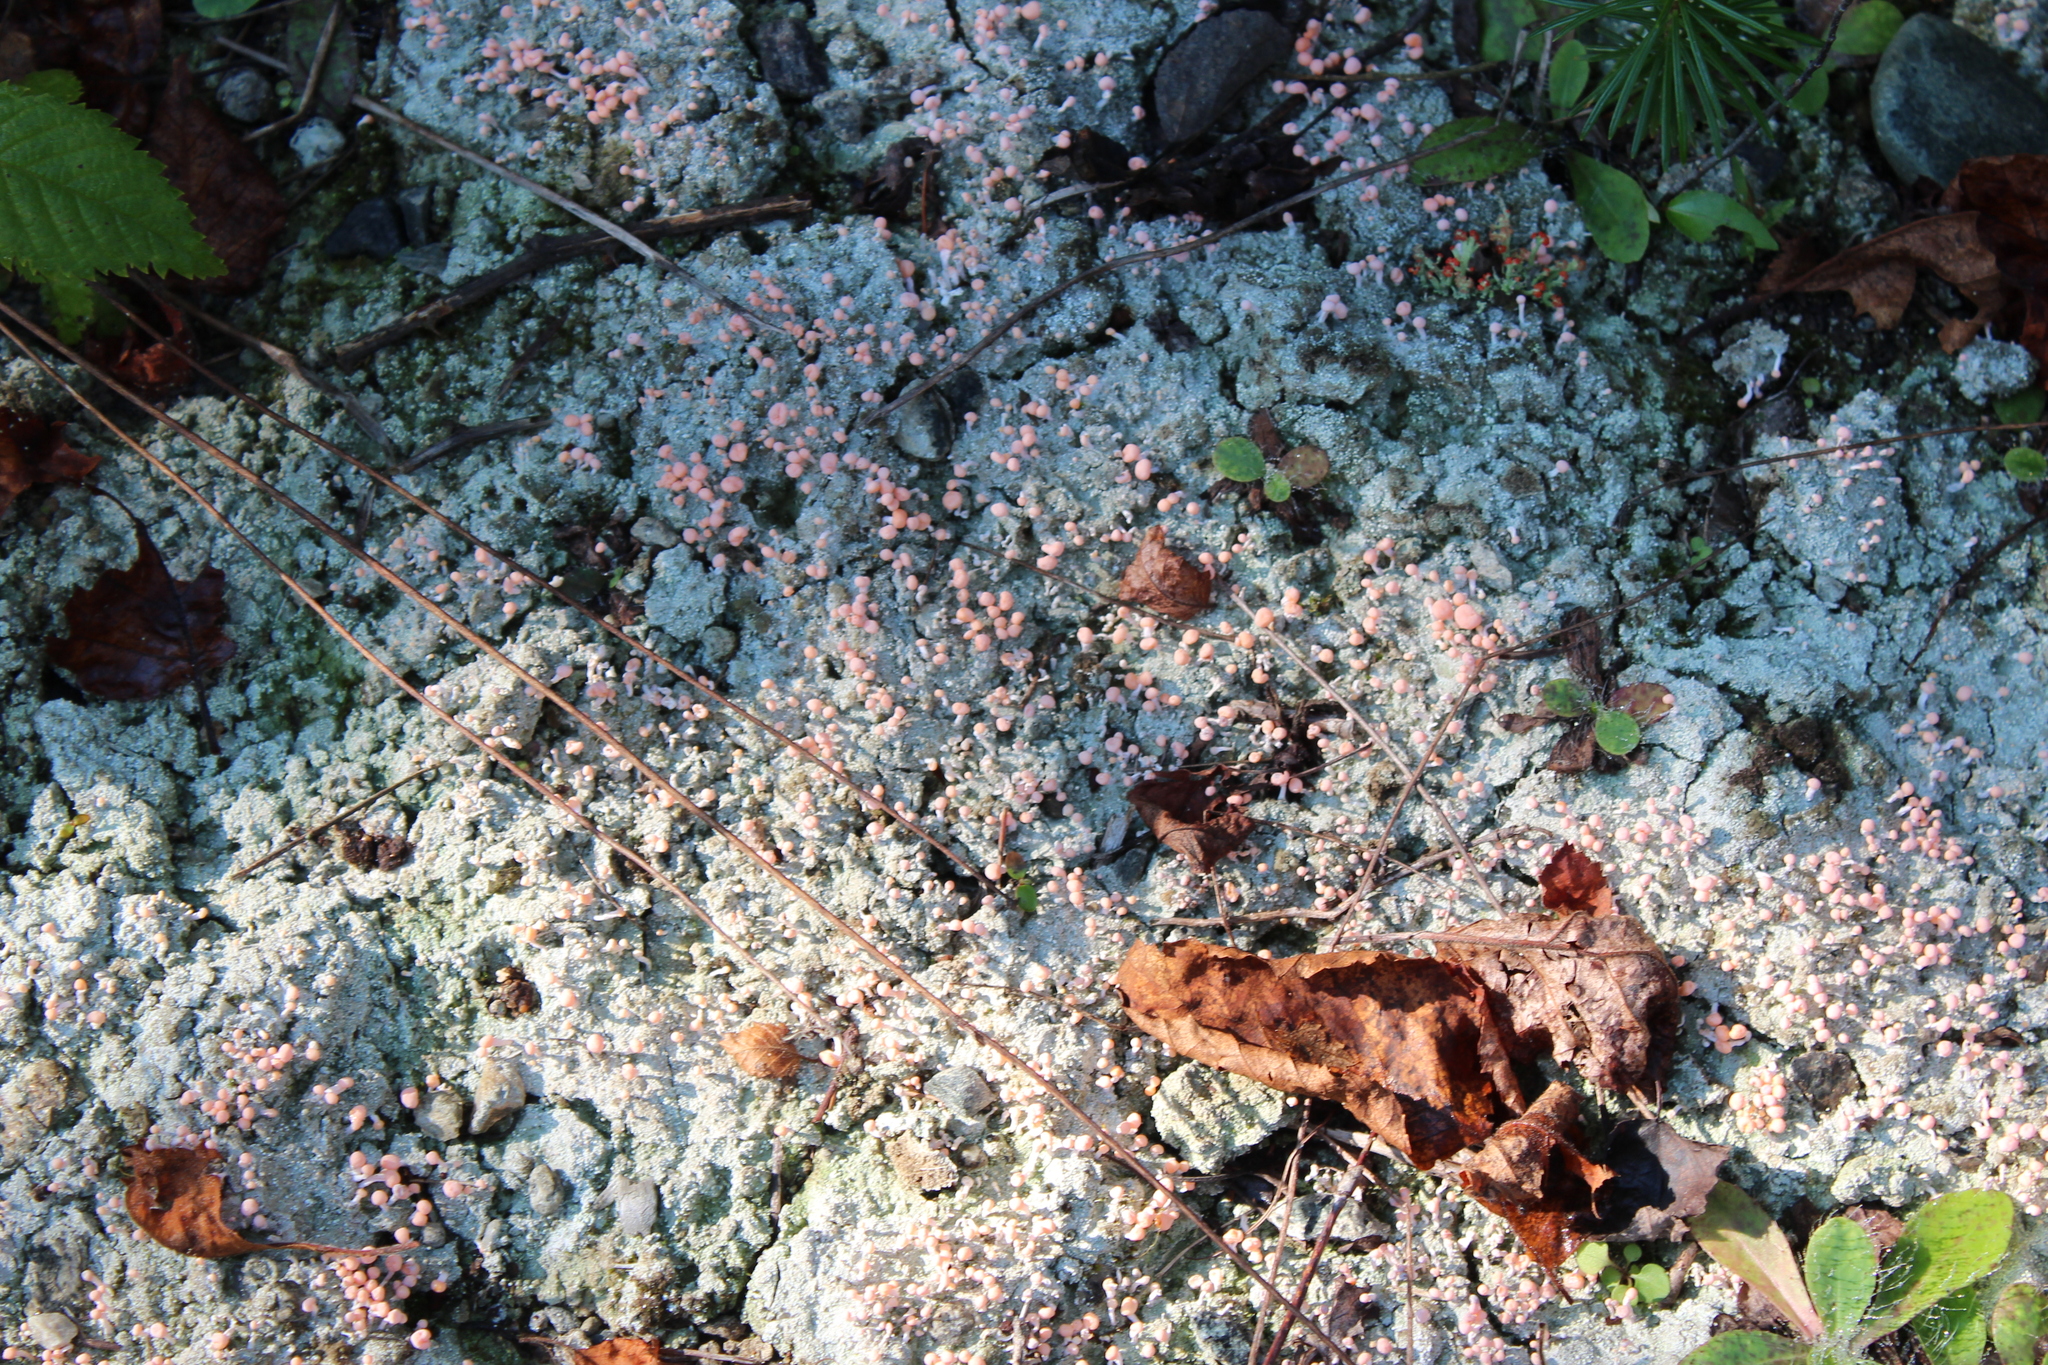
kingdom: Fungi
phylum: Ascomycota
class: Lecanoromycetes
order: Pertusariales
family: Icmadophilaceae
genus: Dibaeis
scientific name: Dibaeis baeomyces
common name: Pink earth lichen
